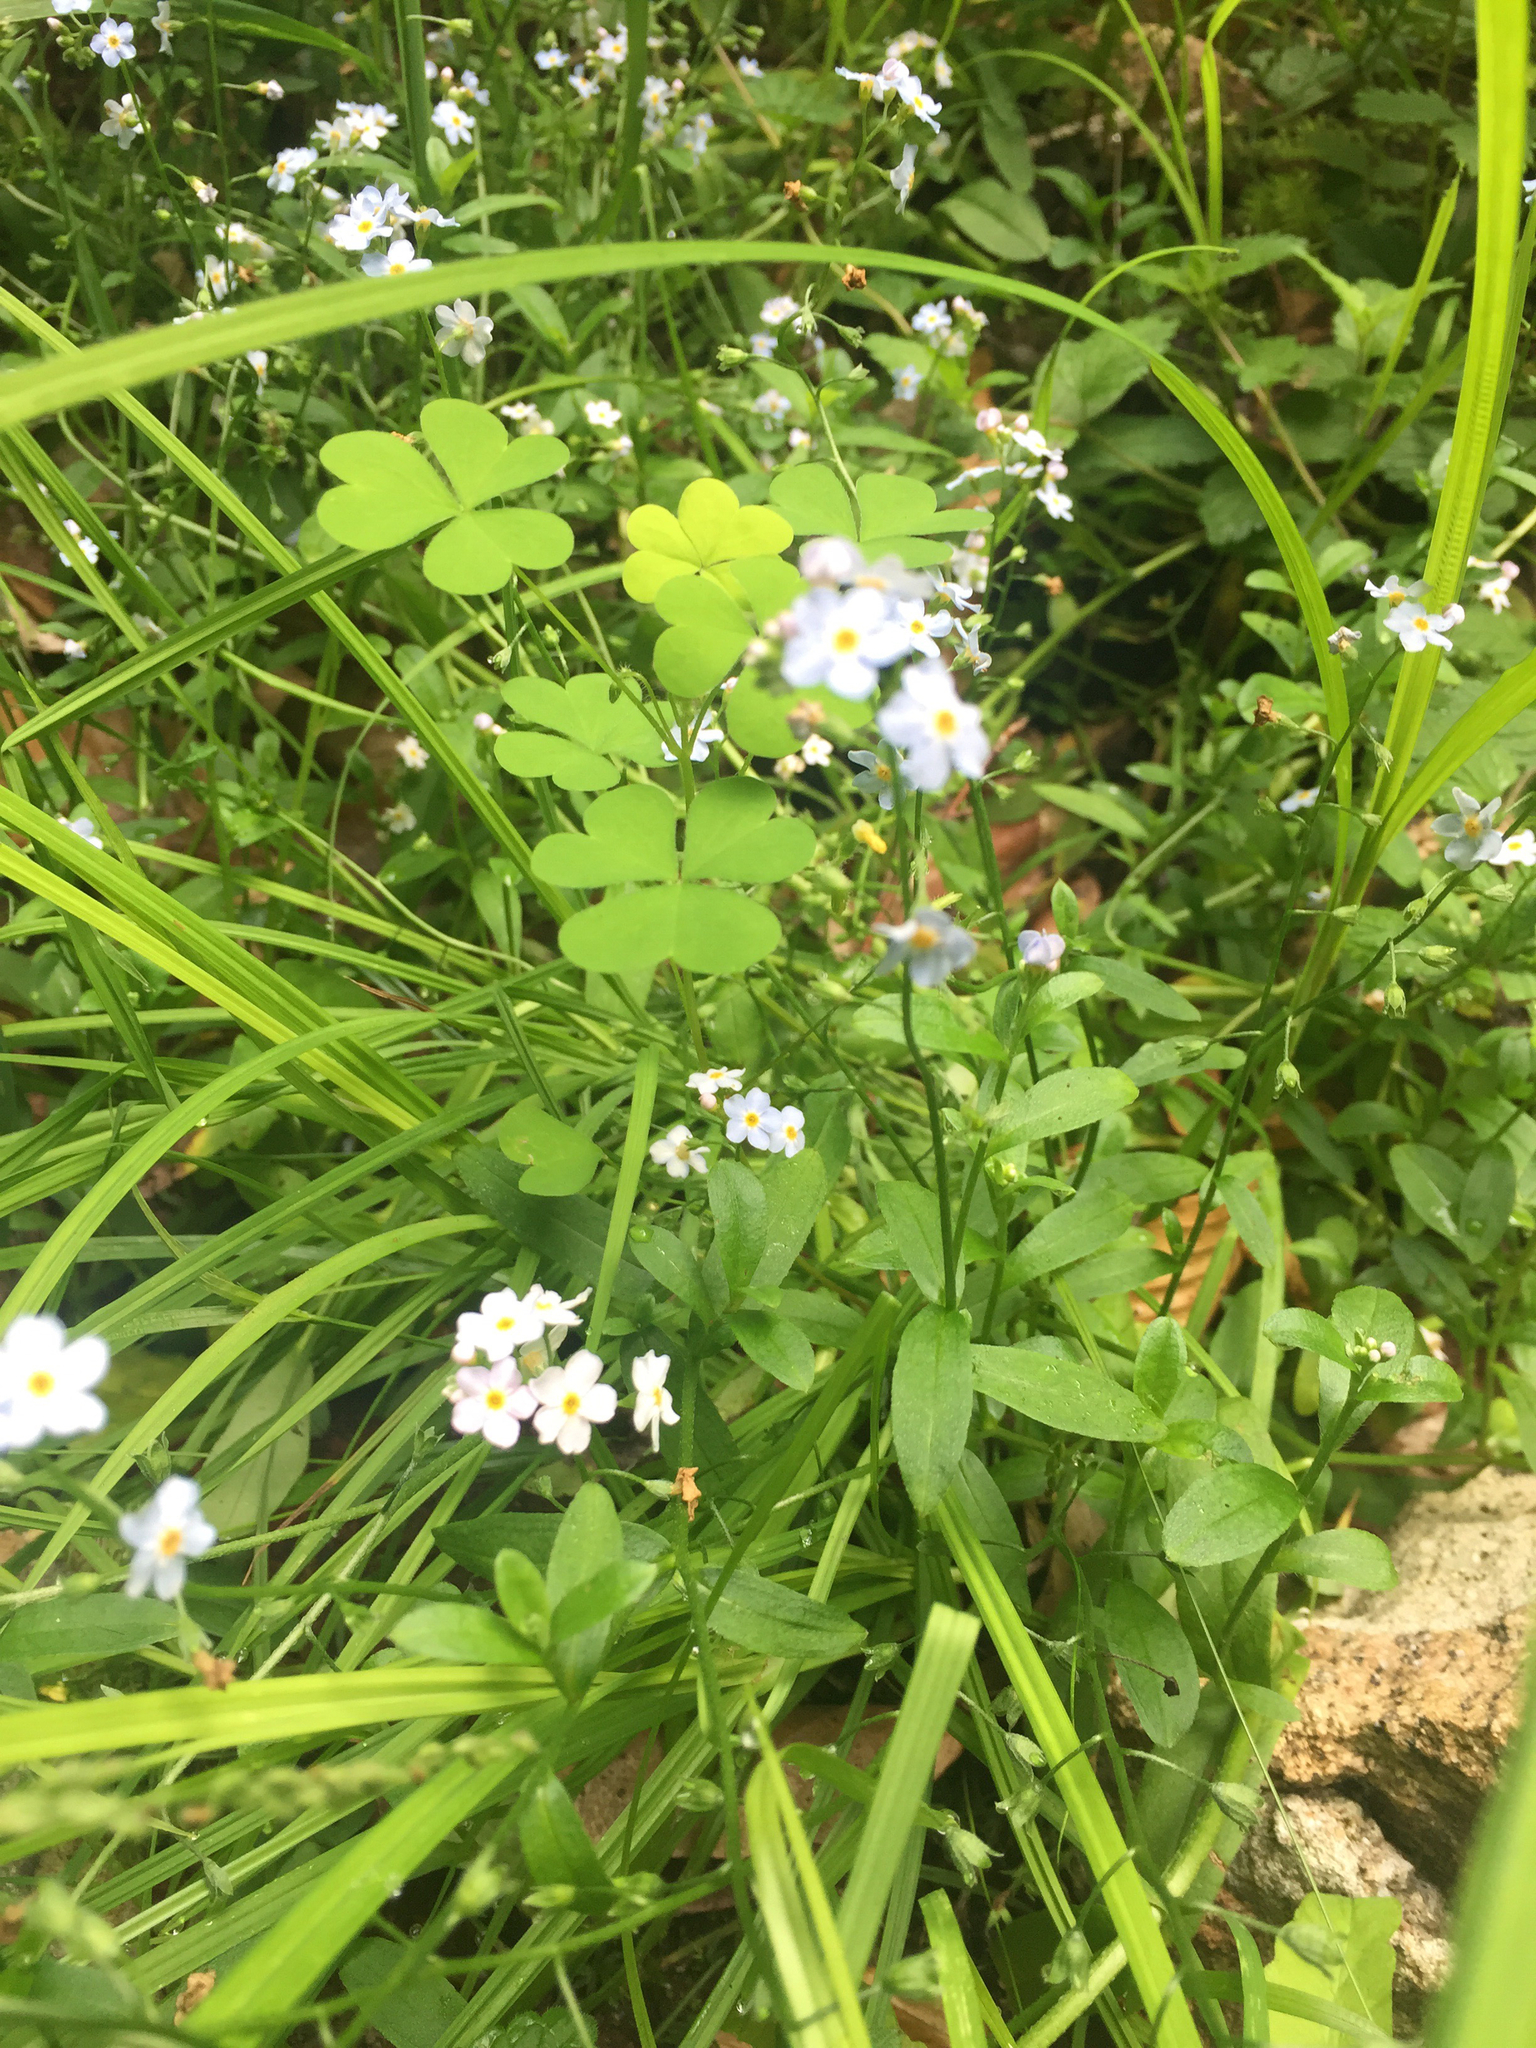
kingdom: Plantae
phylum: Tracheophyta
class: Magnoliopsida
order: Boraginales
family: Boraginaceae
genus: Myosotis
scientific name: Myosotis scorpioides
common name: Water forget-me-not
